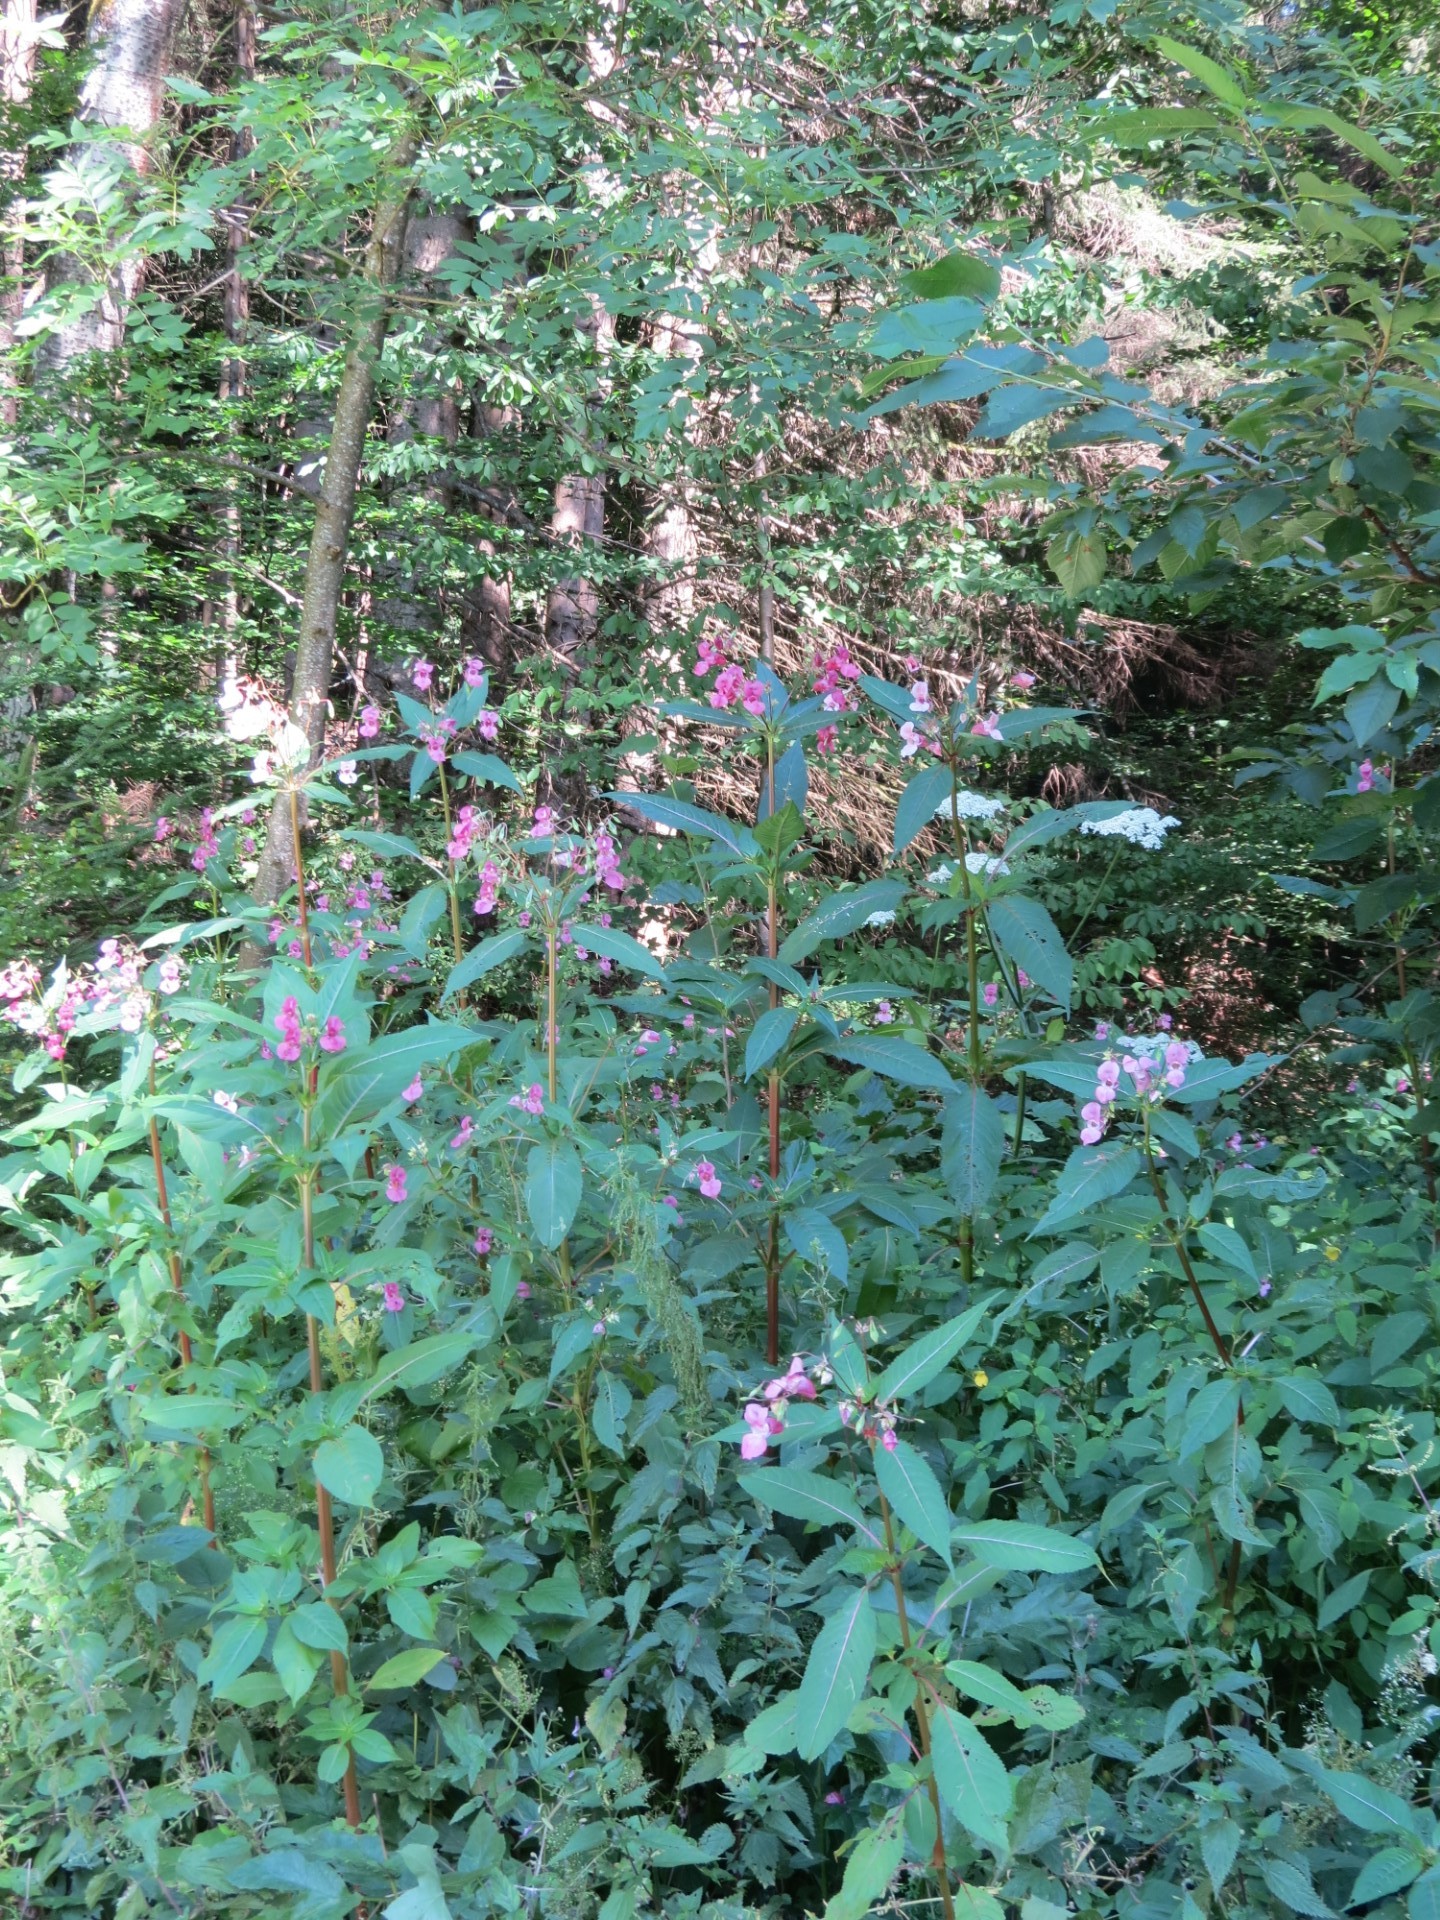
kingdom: Plantae
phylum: Tracheophyta
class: Magnoliopsida
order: Ericales
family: Balsaminaceae
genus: Impatiens
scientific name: Impatiens glandulifera
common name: Himalayan balsam
